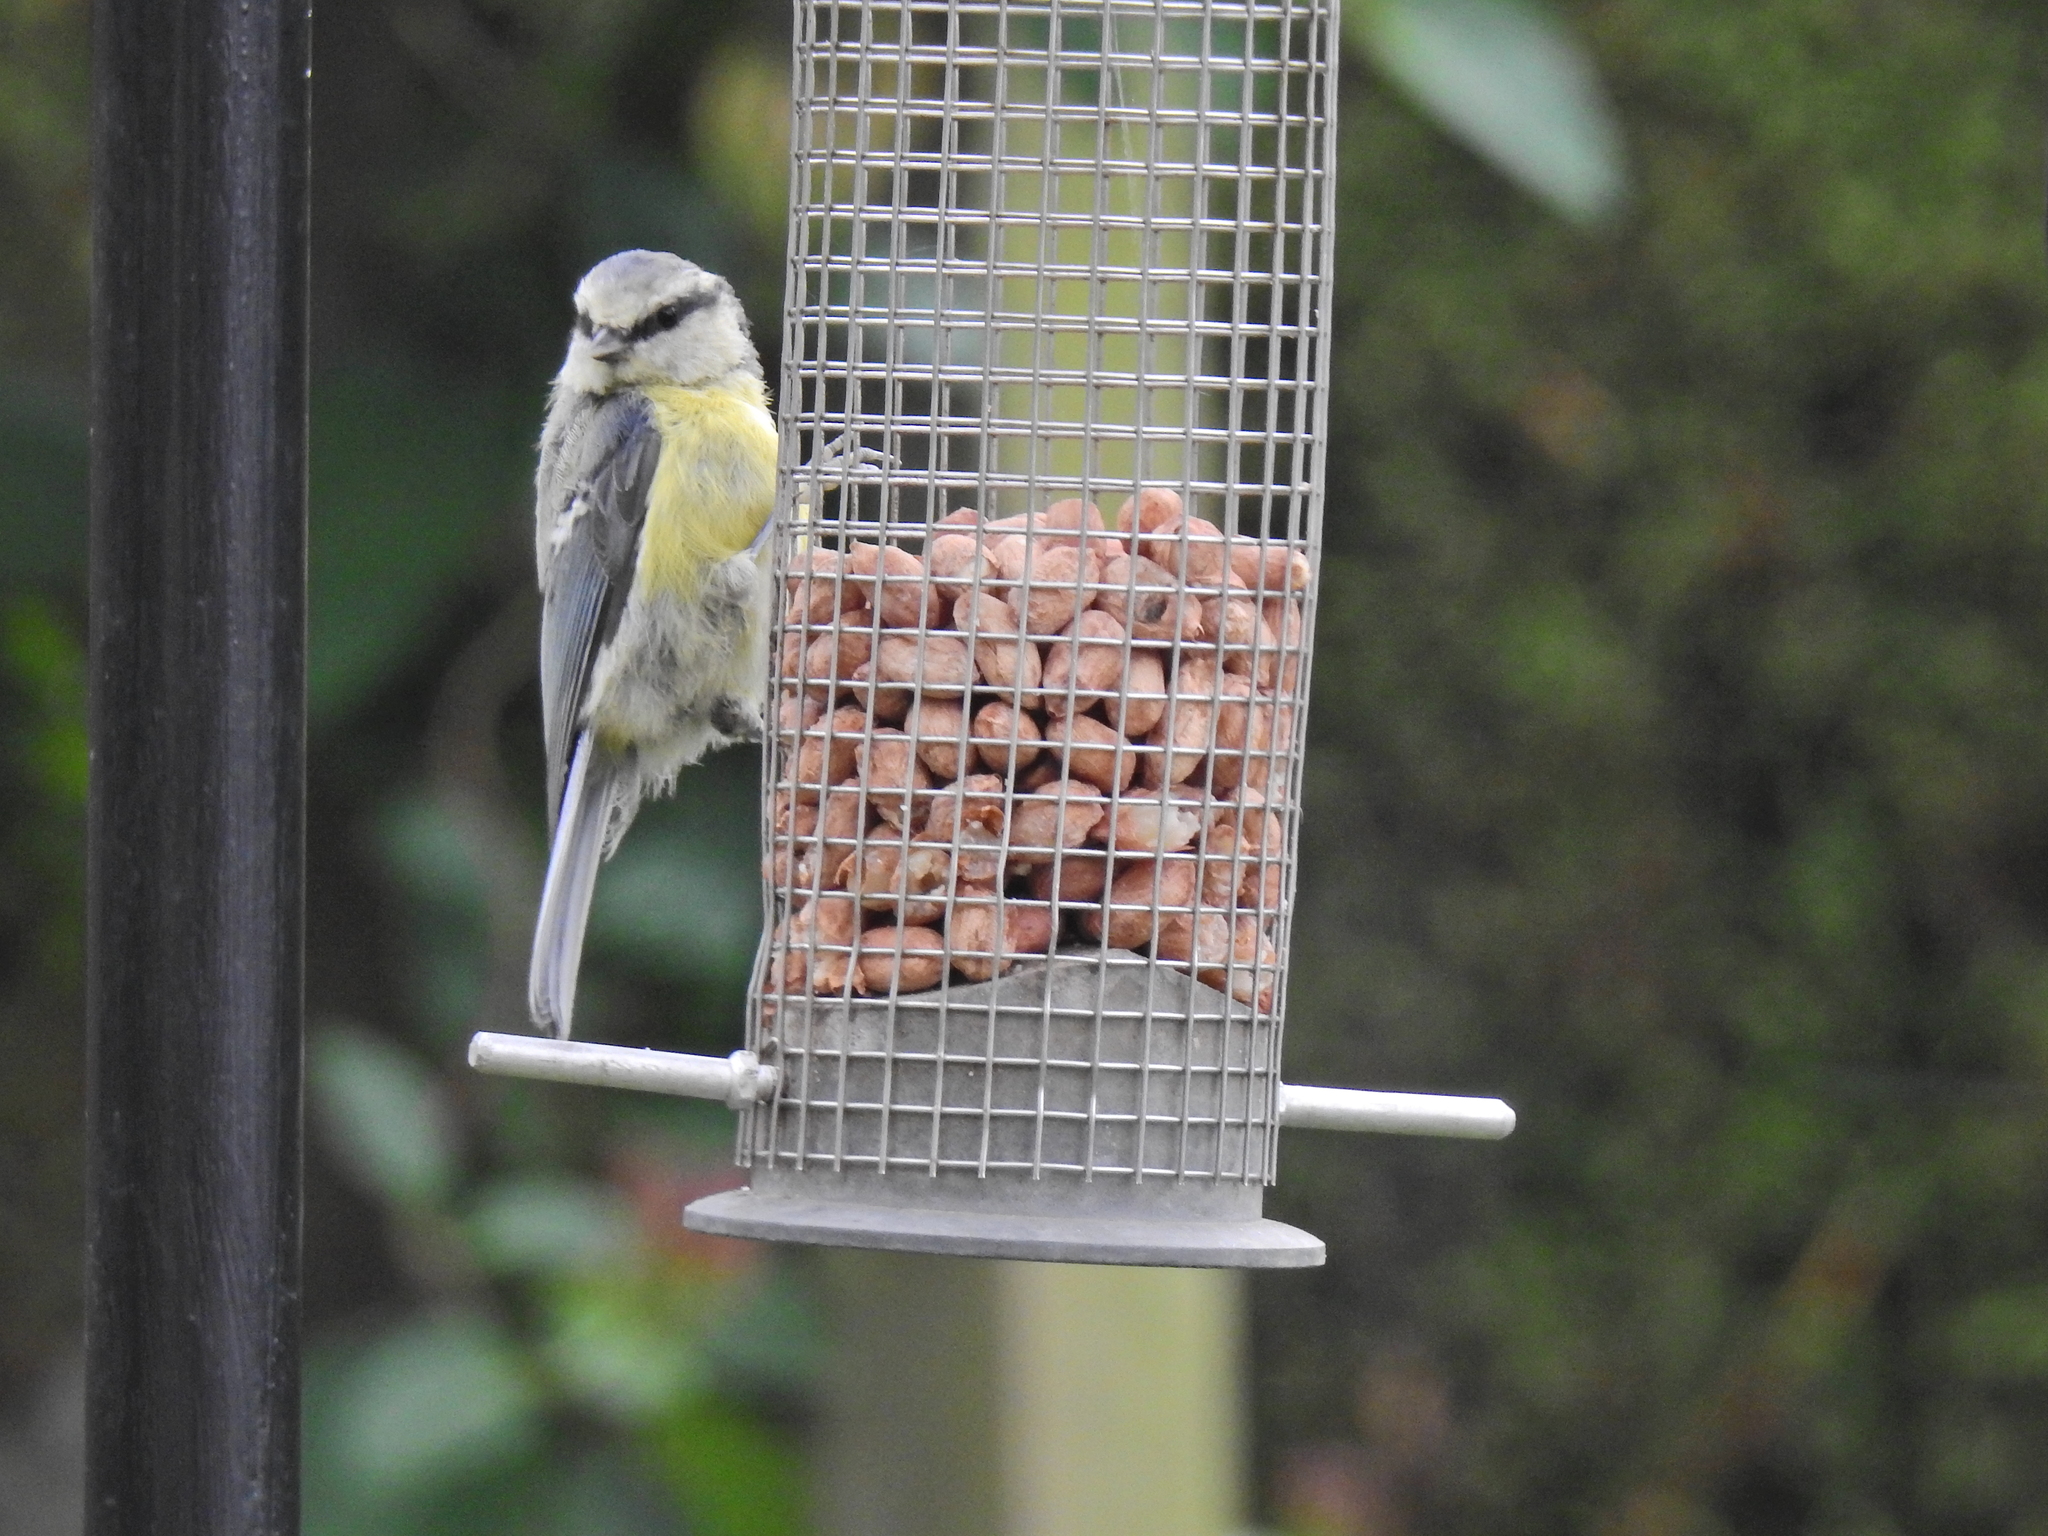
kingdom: Animalia
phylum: Chordata
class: Aves
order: Passeriformes
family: Paridae
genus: Cyanistes
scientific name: Cyanistes caeruleus
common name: Eurasian blue tit
